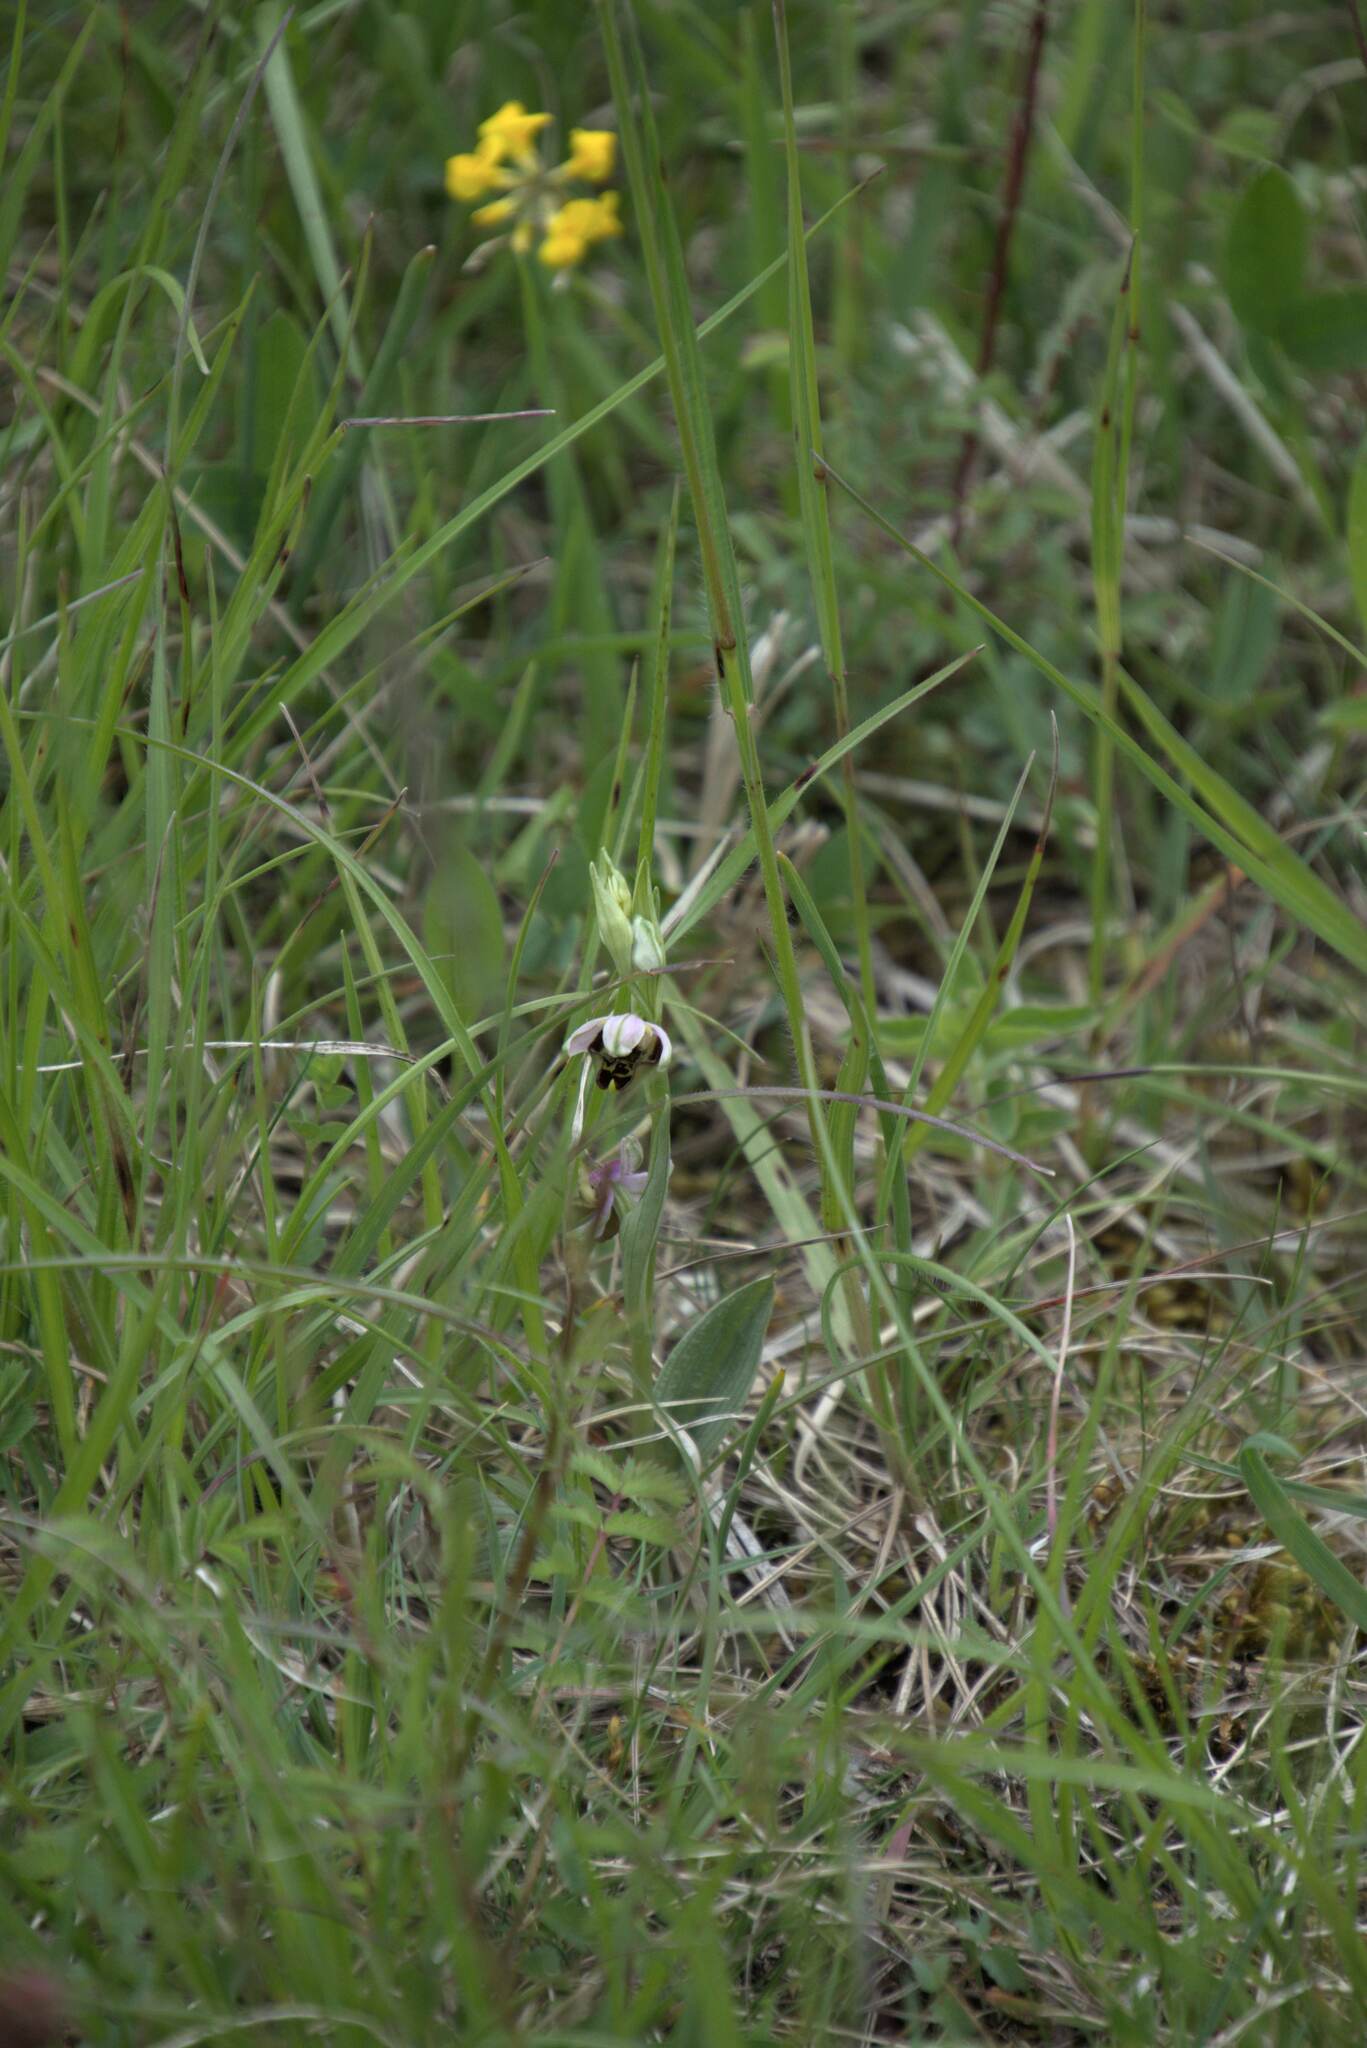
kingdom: Plantae
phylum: Tracheophyta
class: Liliopsida
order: Asparagales
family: Orchidaceae
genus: Ophrys
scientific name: Ophrys holosericea
